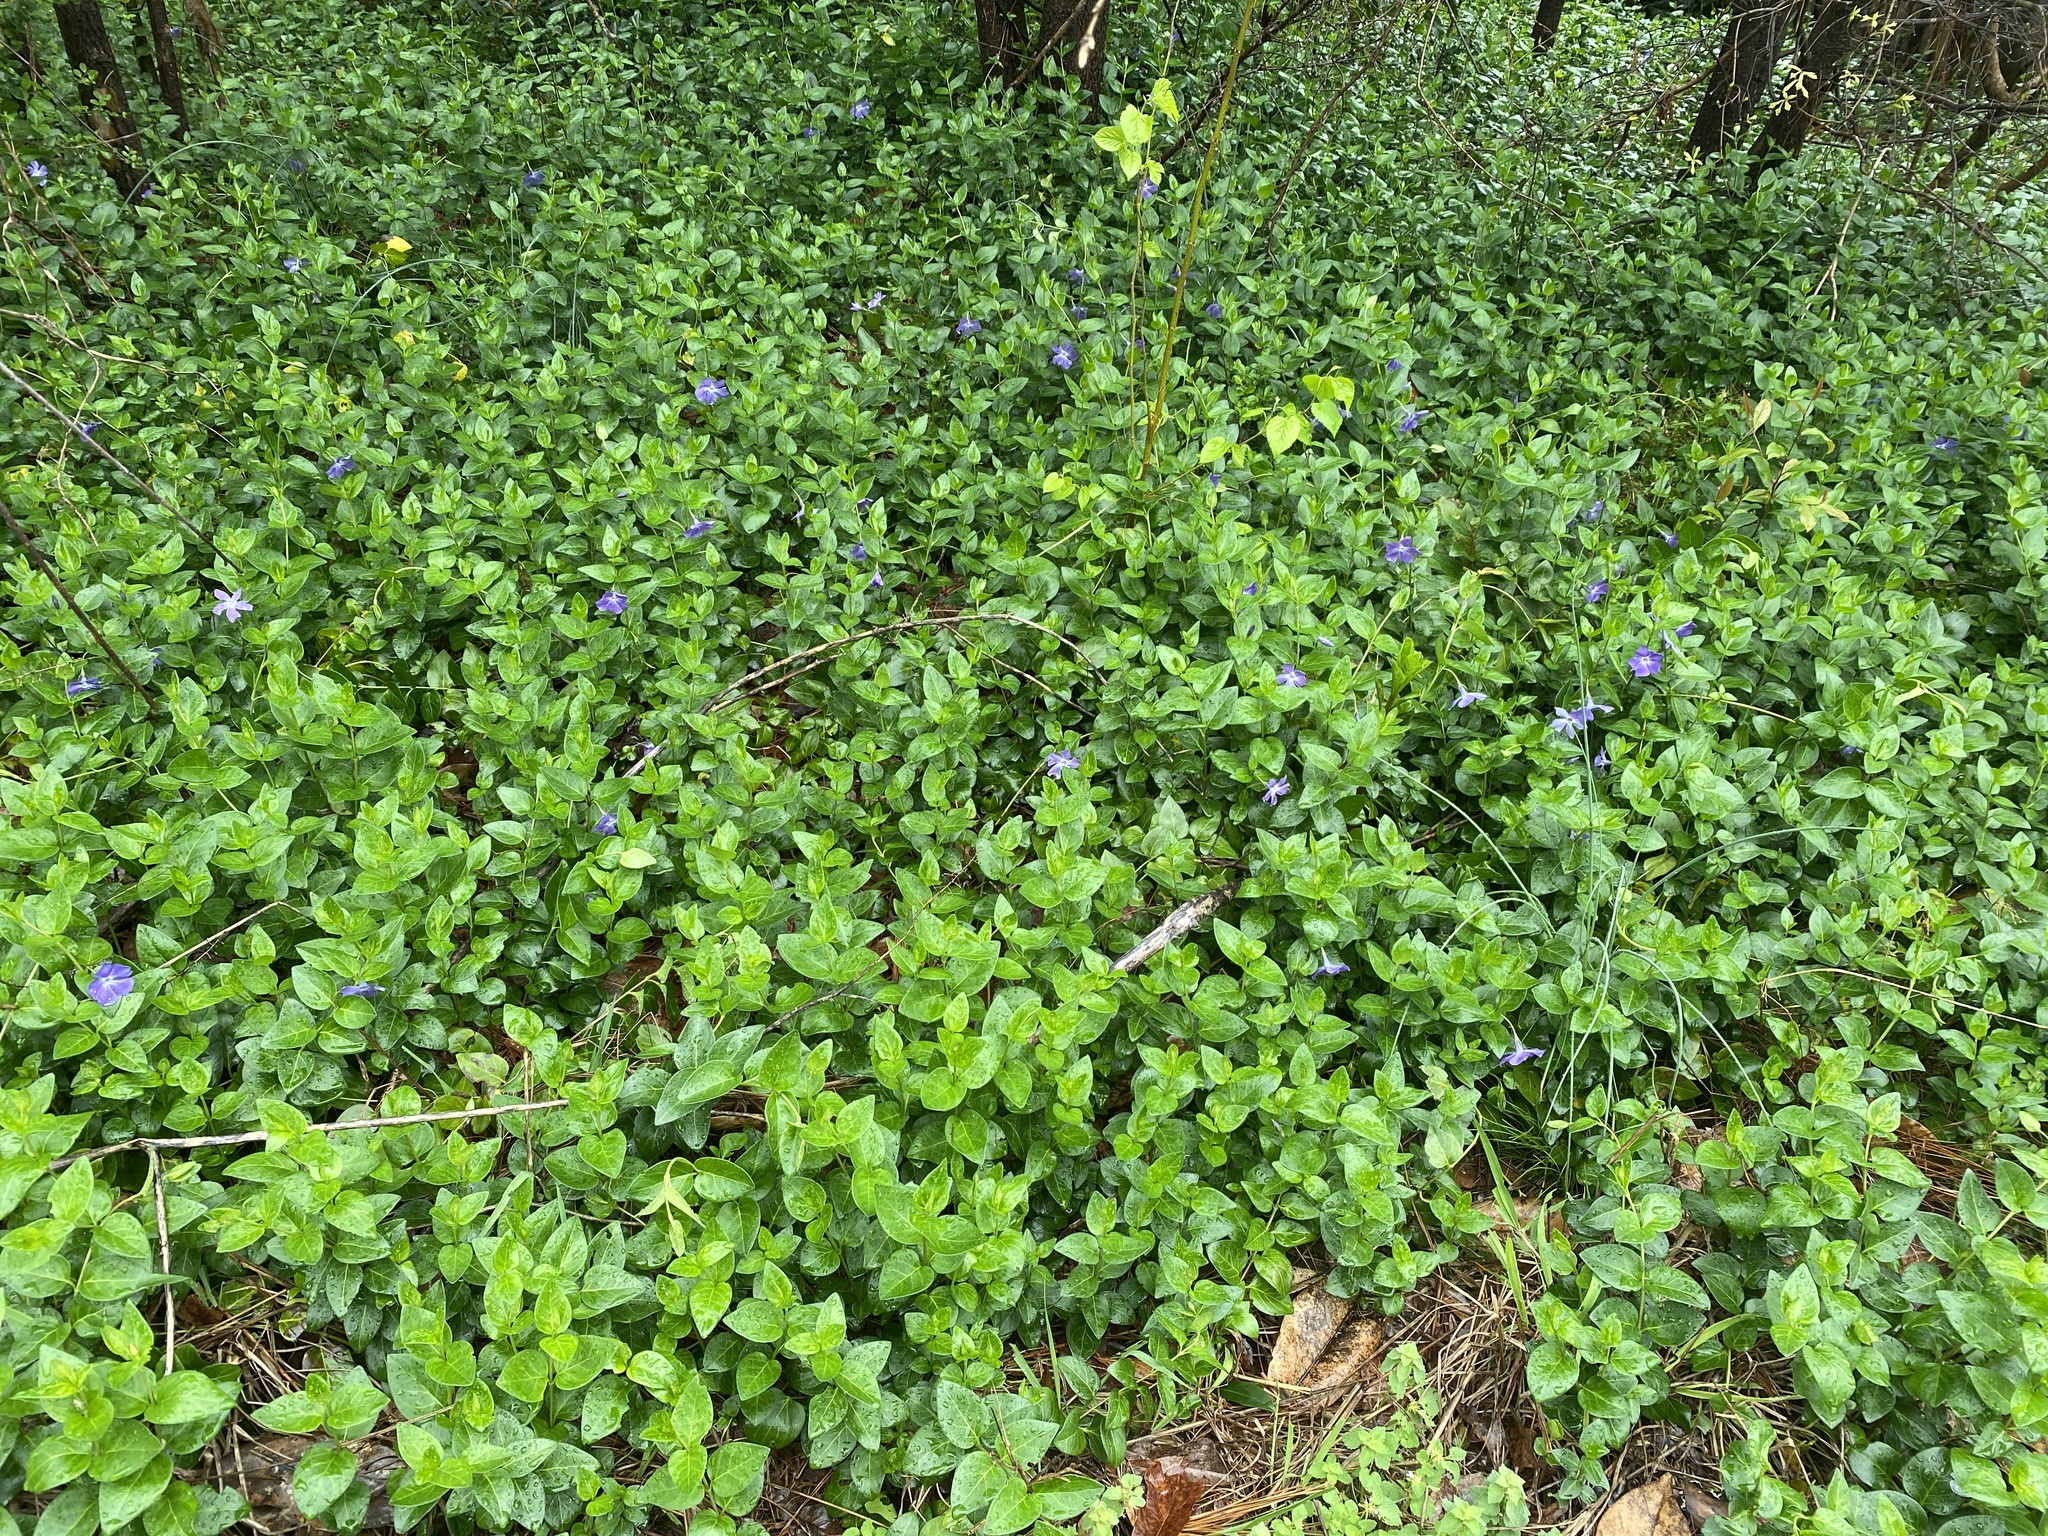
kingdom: Plantae
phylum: Tracheophyta
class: Magnoliopsida
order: Gentianales
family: Apocynaceae
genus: Vinca
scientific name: Vinca major
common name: Greater periwinkle
